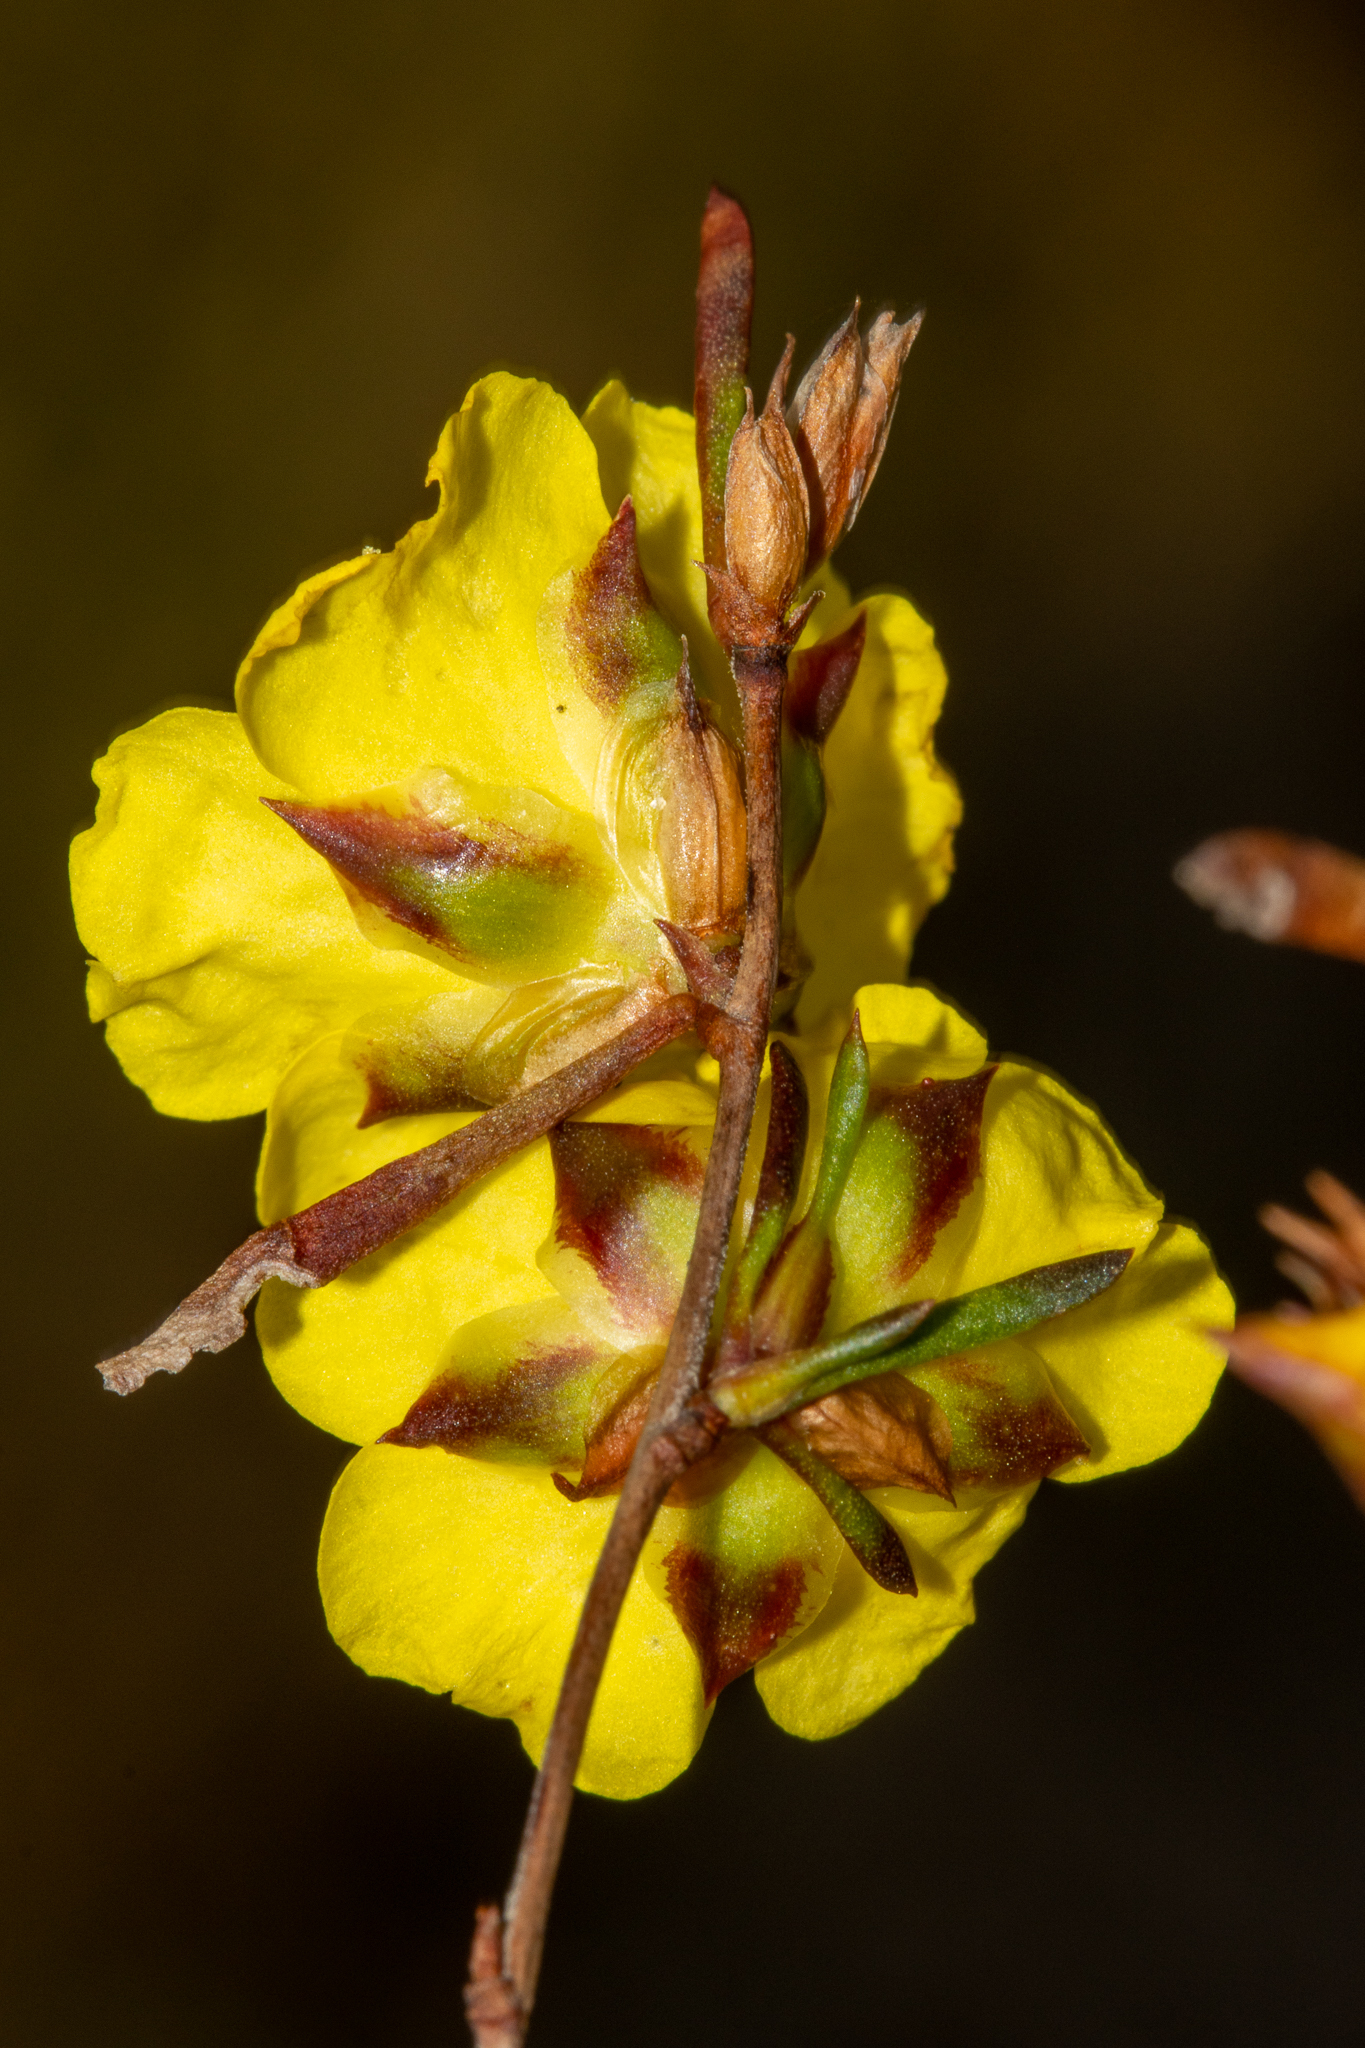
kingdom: Plantae
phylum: Tracheophyta
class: Magnoliopsida
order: Dilleniales
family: Dilleniaceae
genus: Hibbertia
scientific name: Hibbertia virgata
